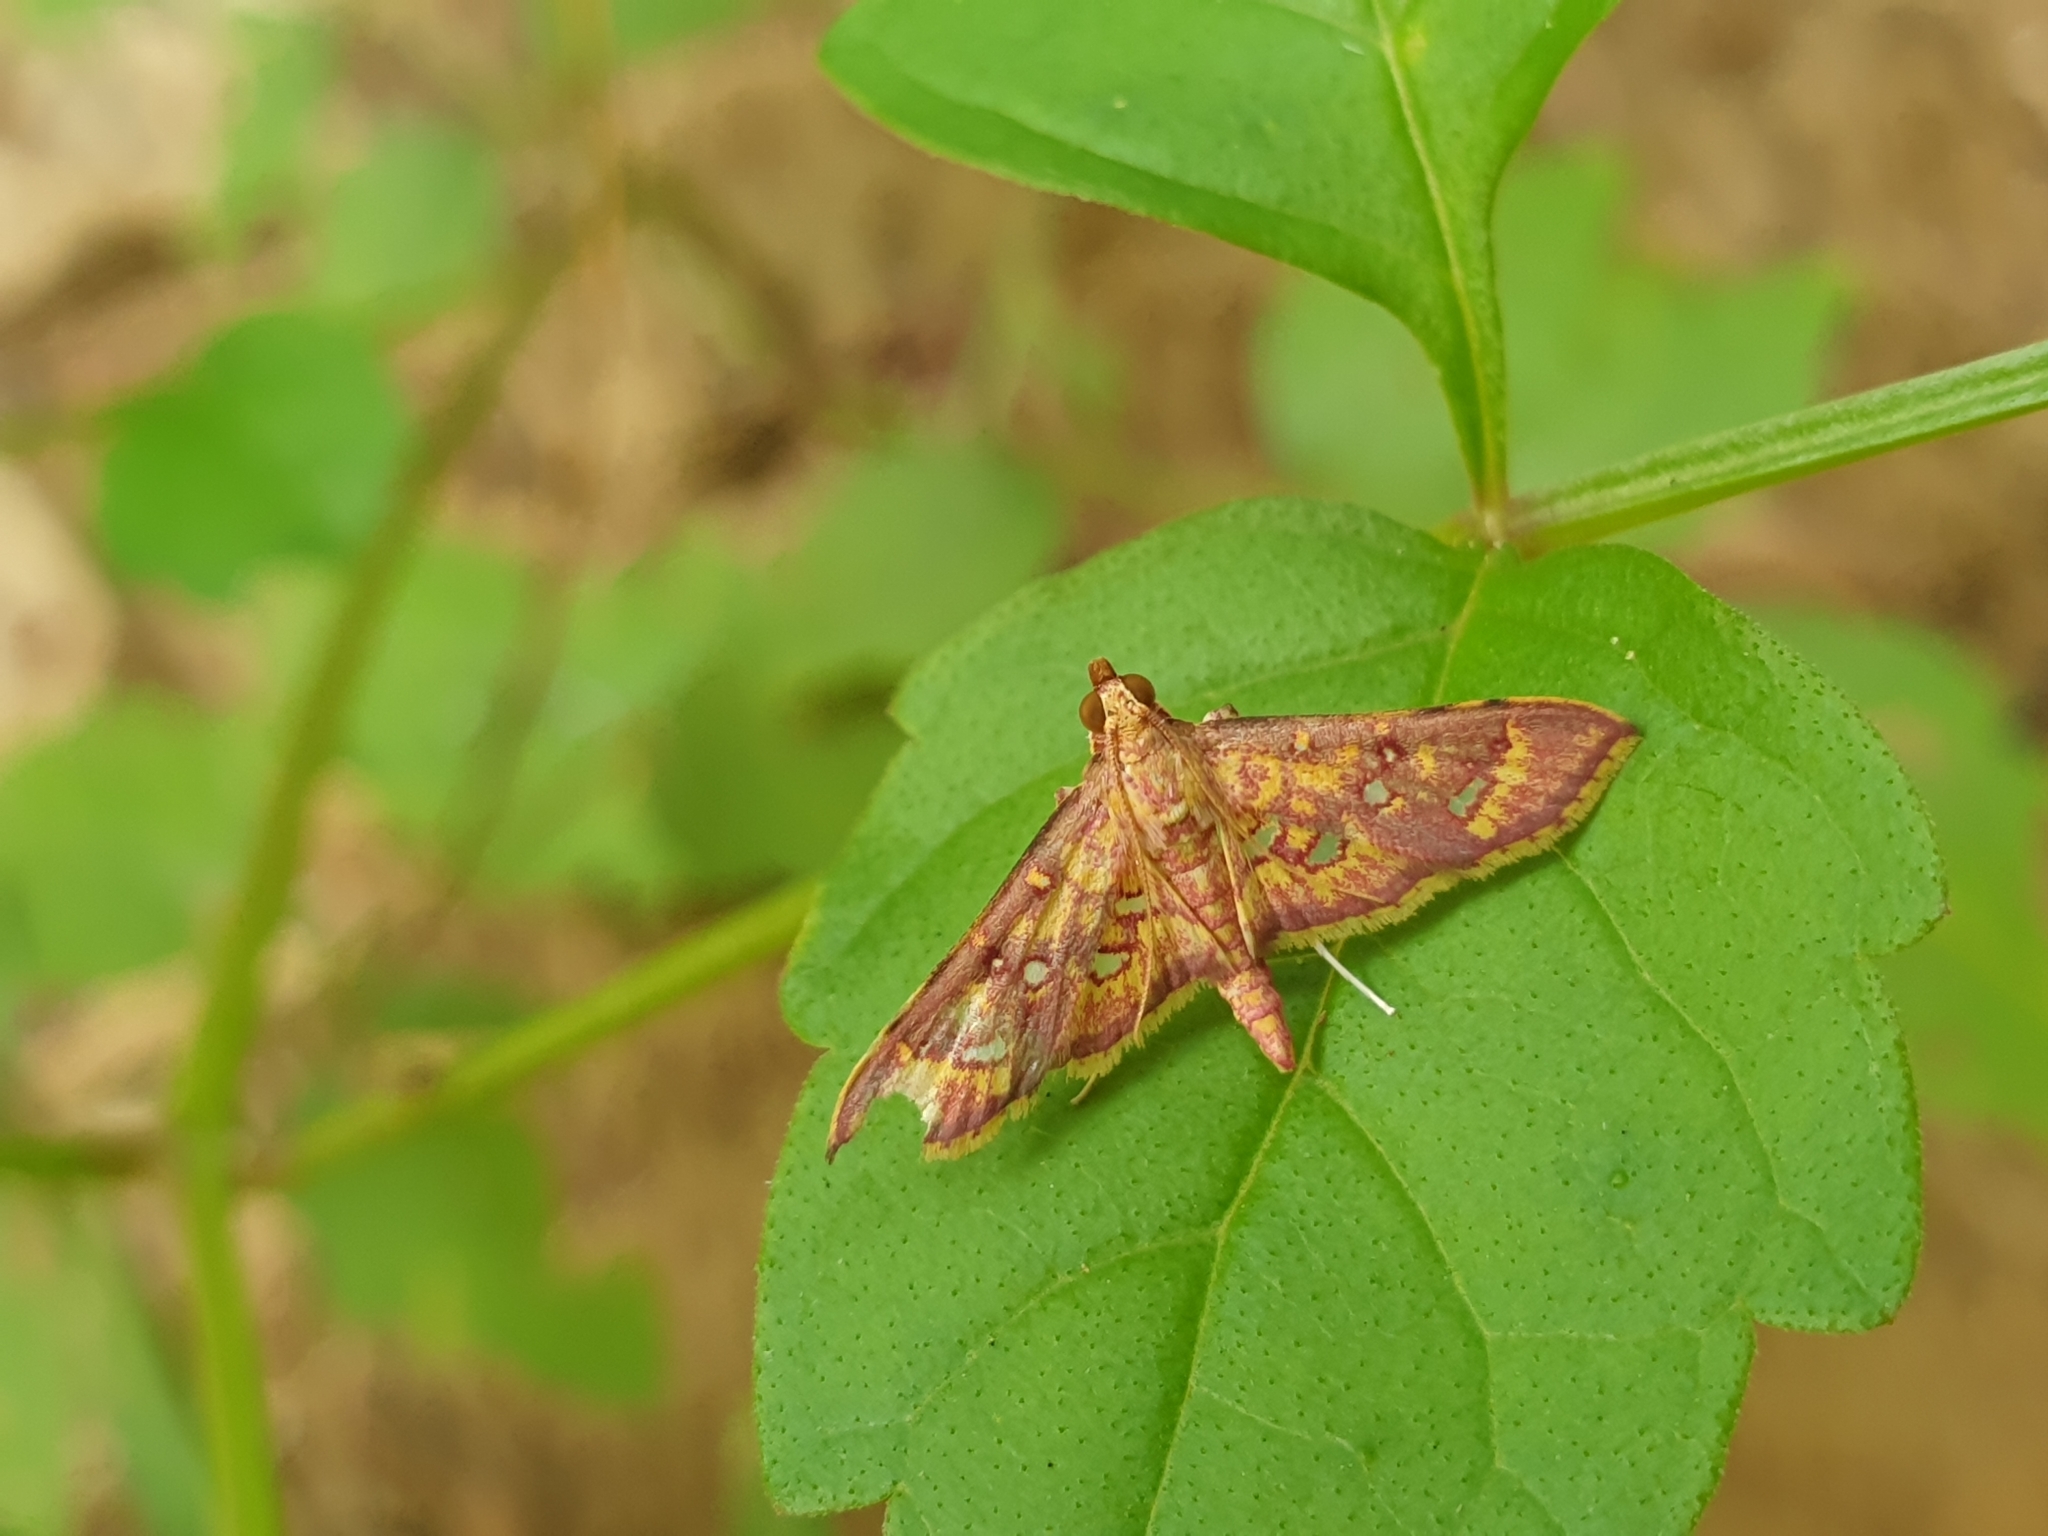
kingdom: Animalia
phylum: Arthropoda
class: Insecta
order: Lepidoptera
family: Crambidae
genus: Ischnurges
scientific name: Ischnurges gratiosalis
